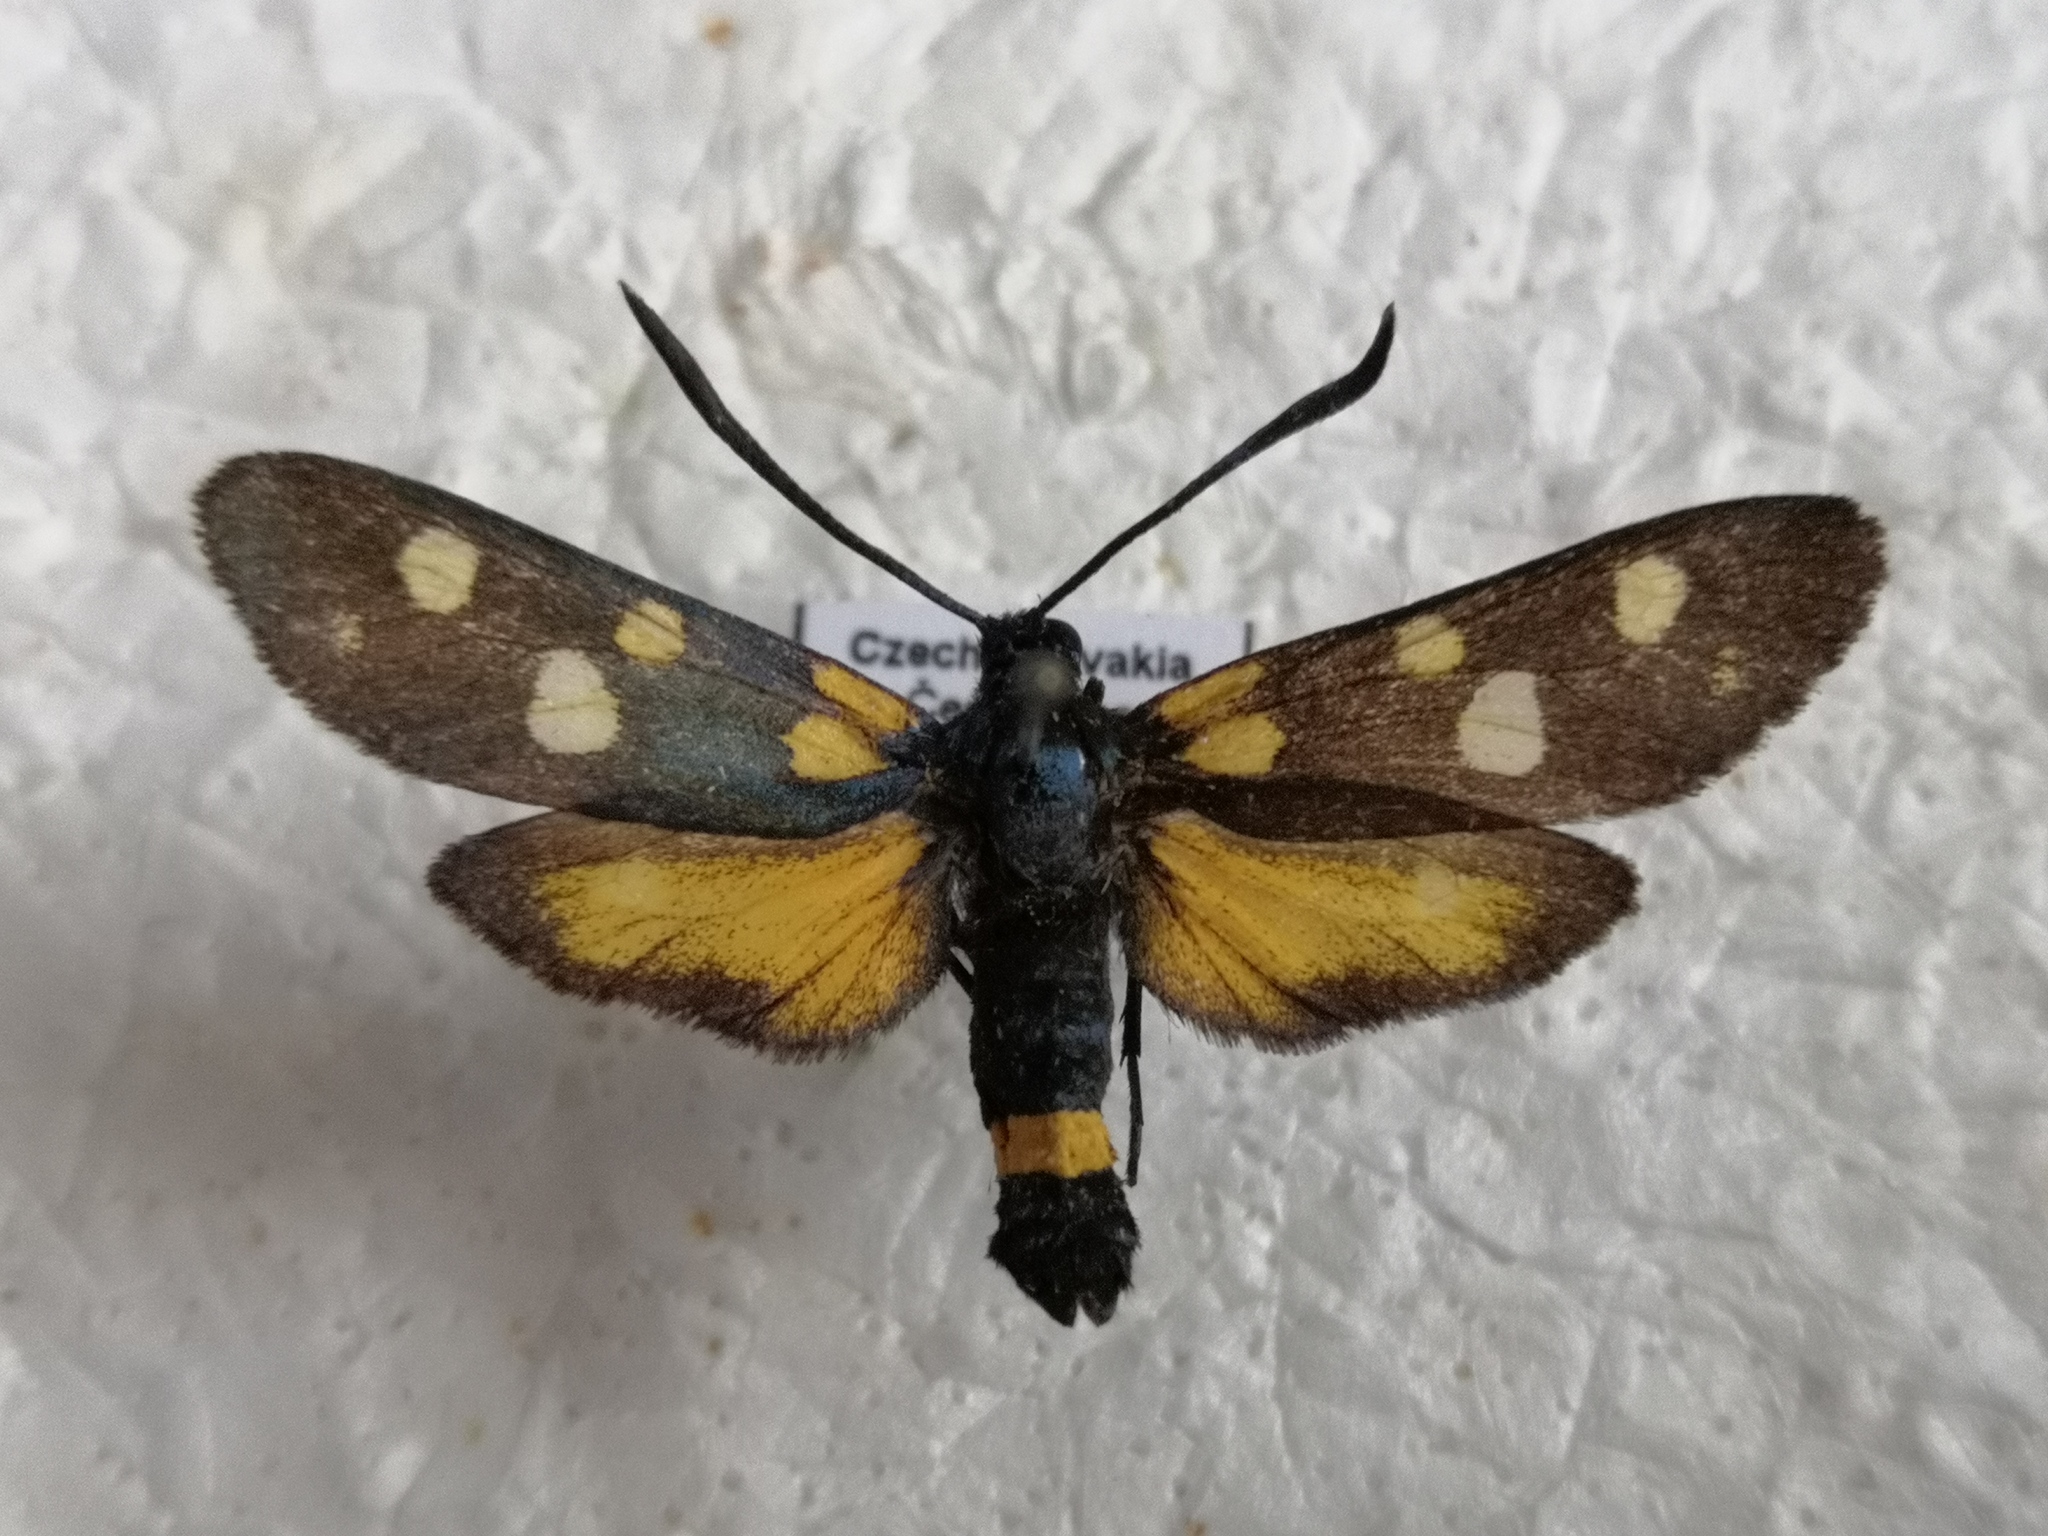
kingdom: Animalia
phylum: Arthropoda
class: Insecta
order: Lepidoptera
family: Zygaenidae
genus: Zygaena
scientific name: Zygaena ephialtes
